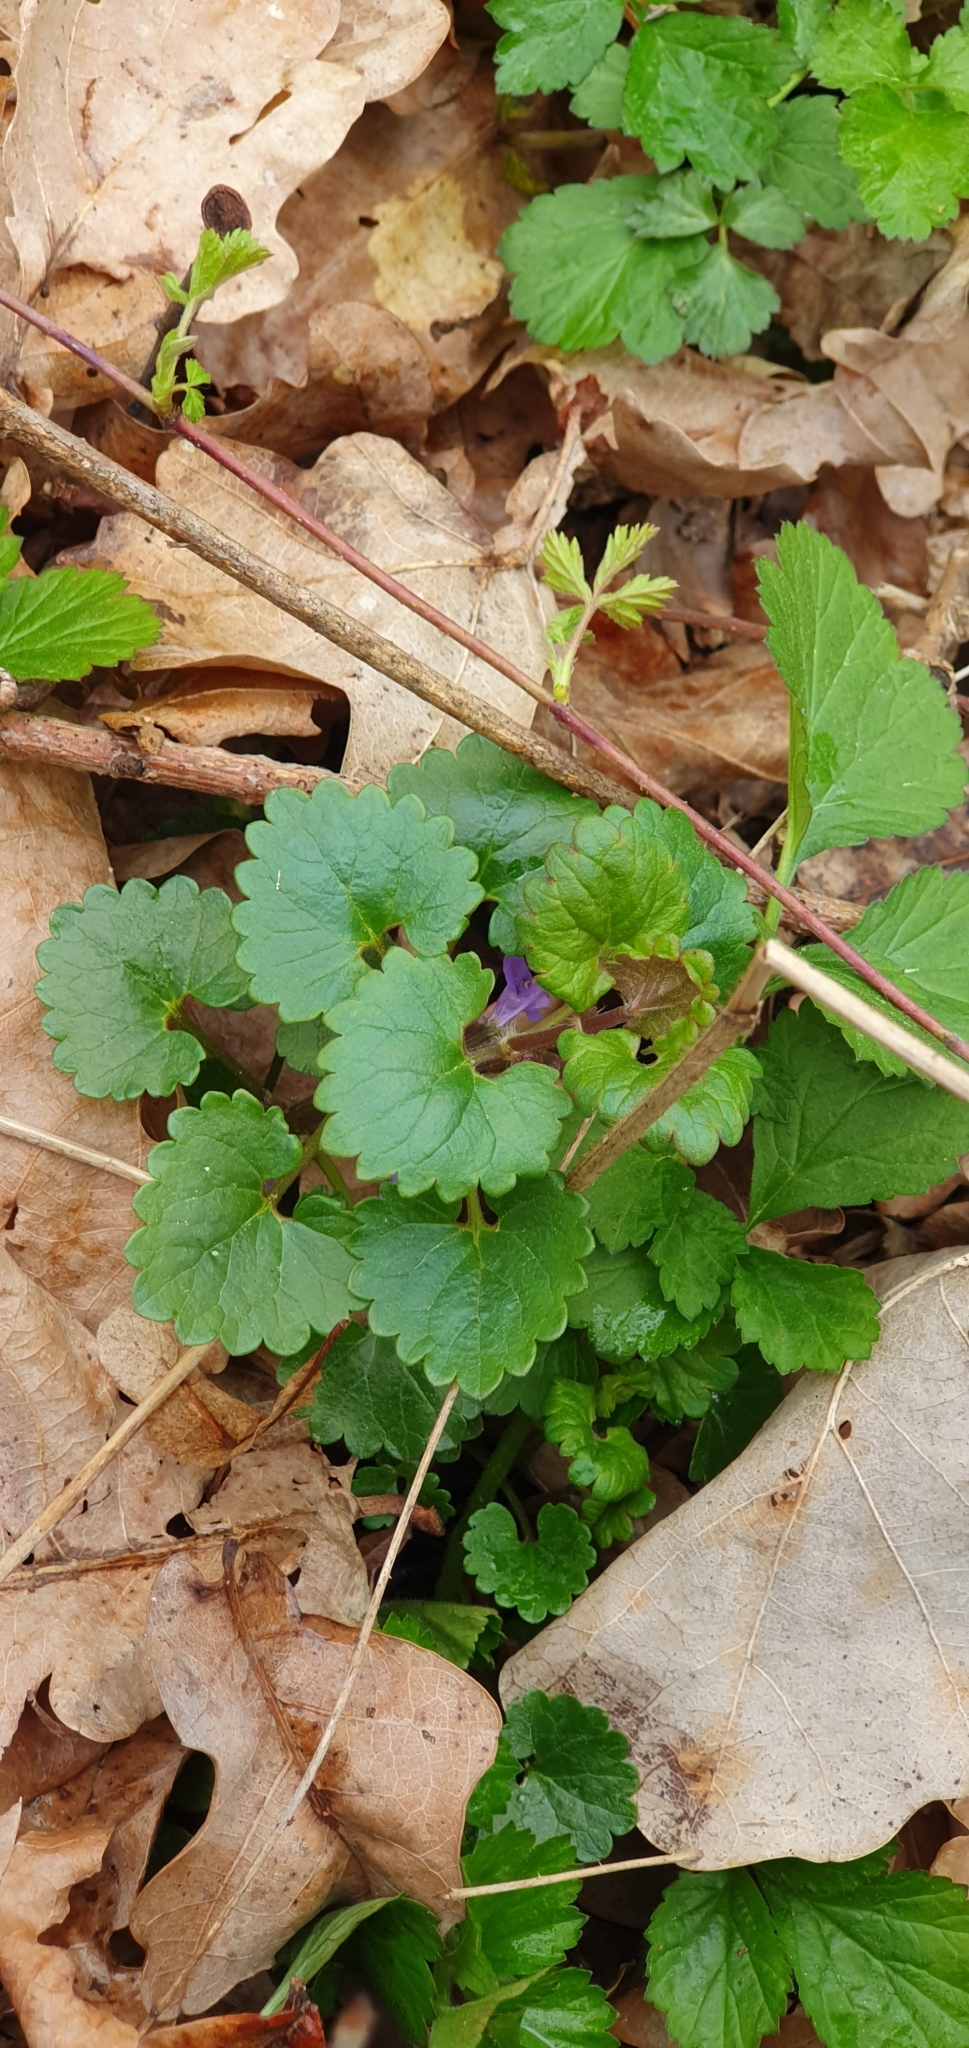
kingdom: Plantae
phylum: Tracheophyta
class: Magnoliopsida
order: Lamiales
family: Lamiaceae
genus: Glechoma
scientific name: Glechoma hederacea
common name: Ground ivy
